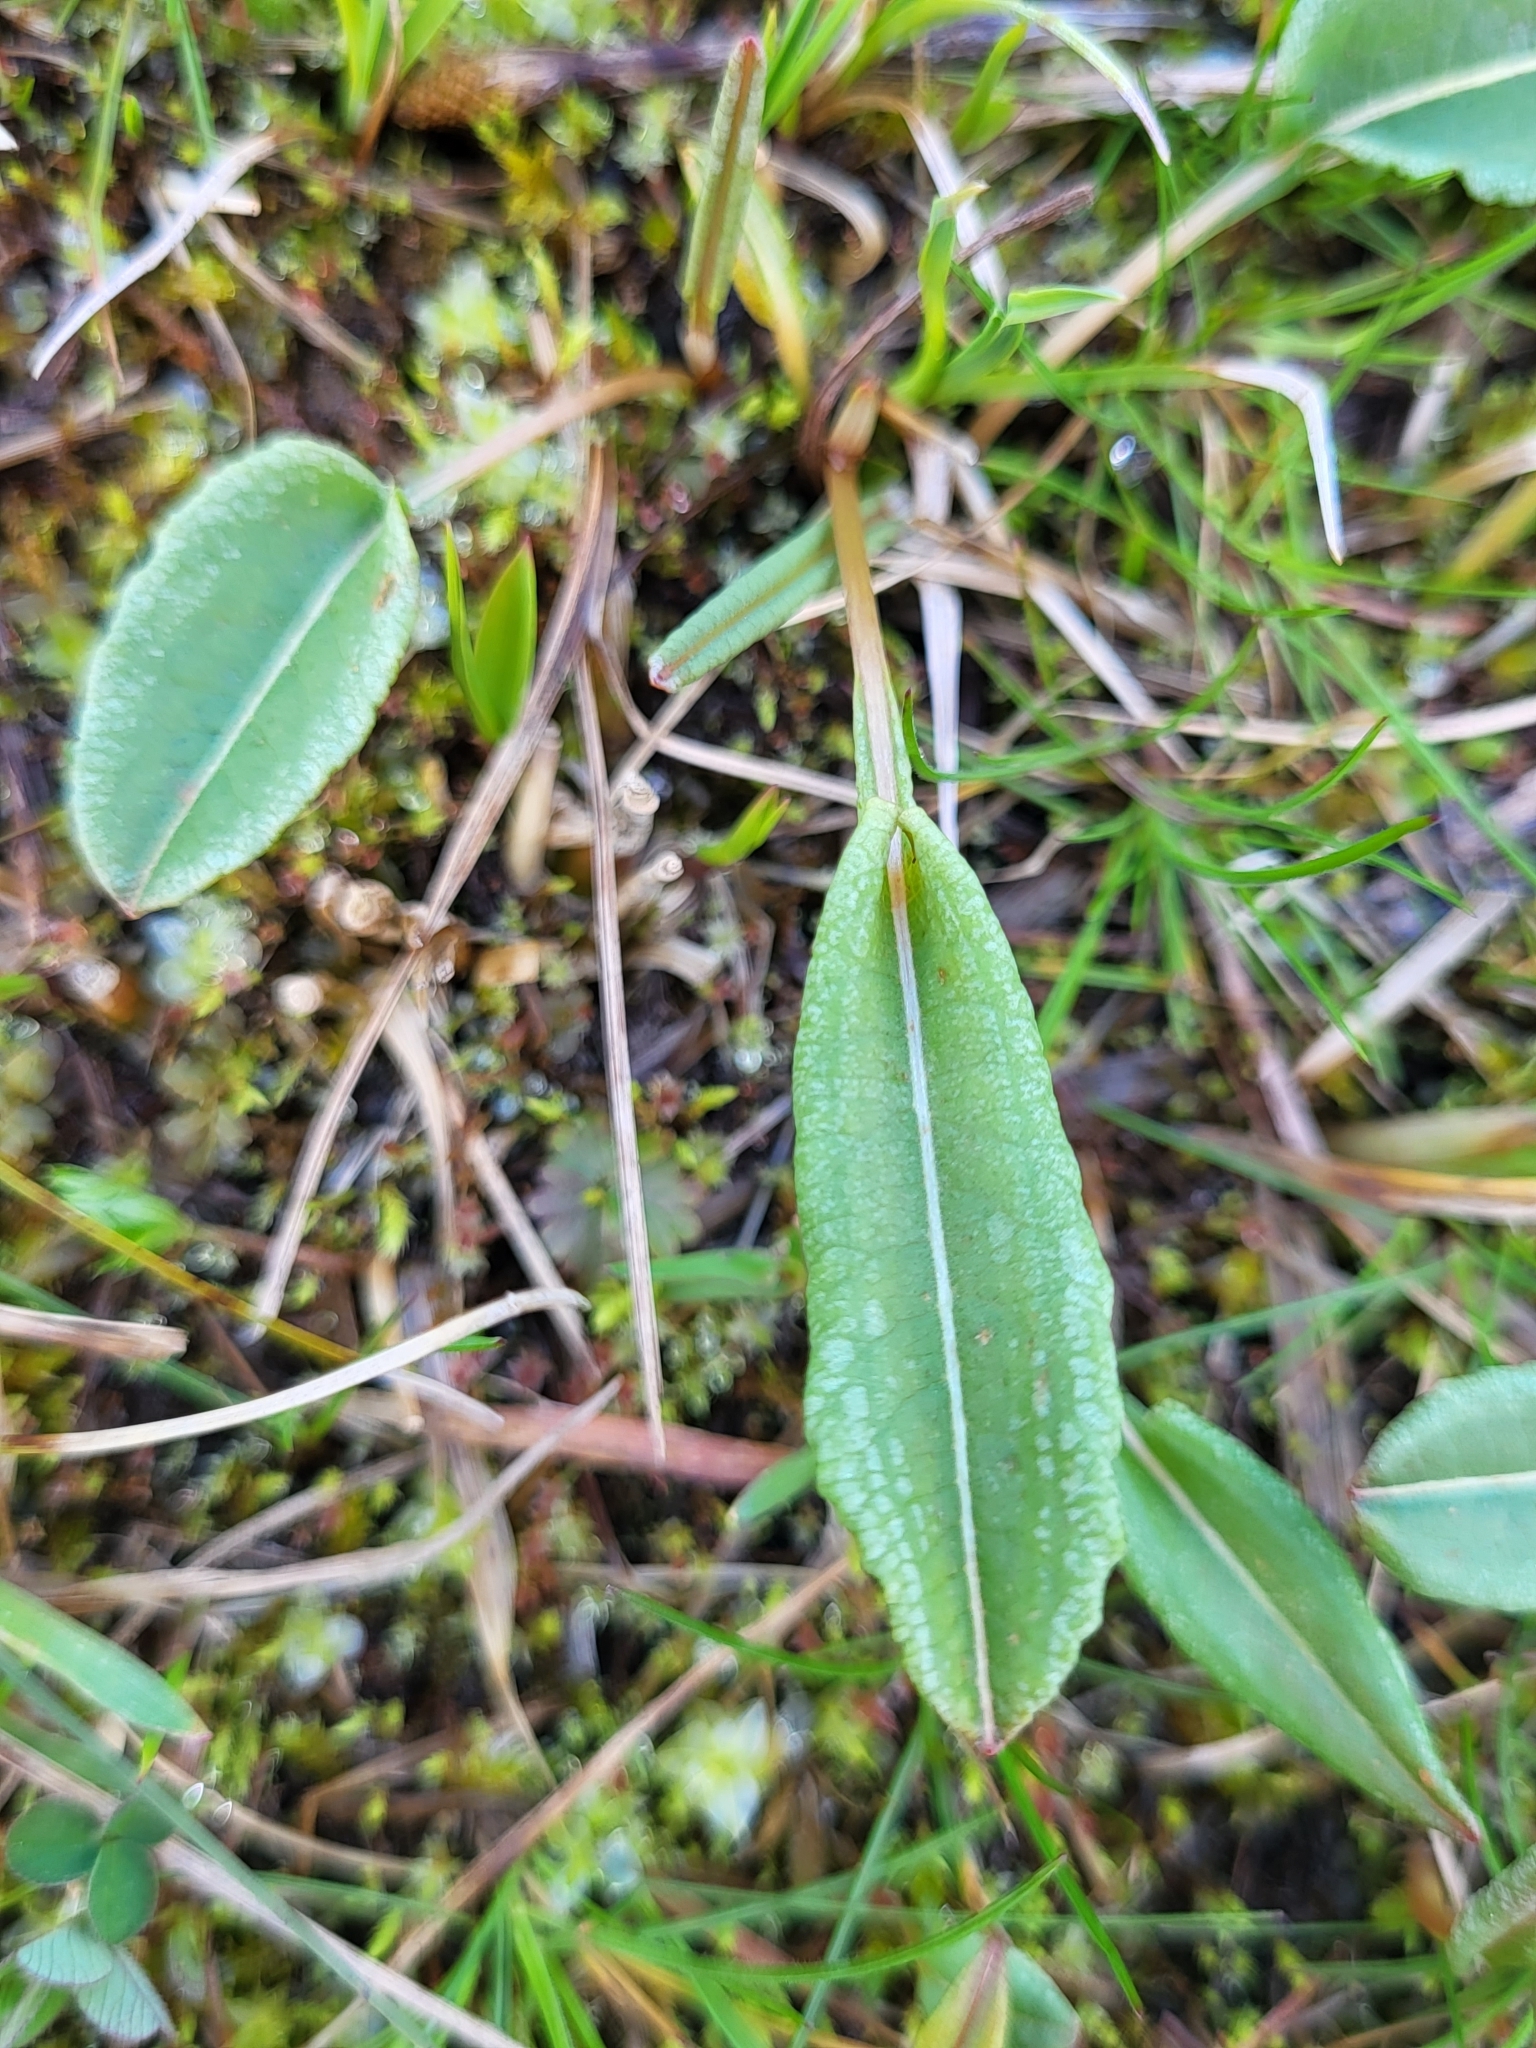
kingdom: Plantae
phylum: Tracheophyta
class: Magnoliopsida
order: Caryophyllales
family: Polygonaceae
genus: Bistorta
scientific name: Bistorta officinalis
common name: Common bistort
